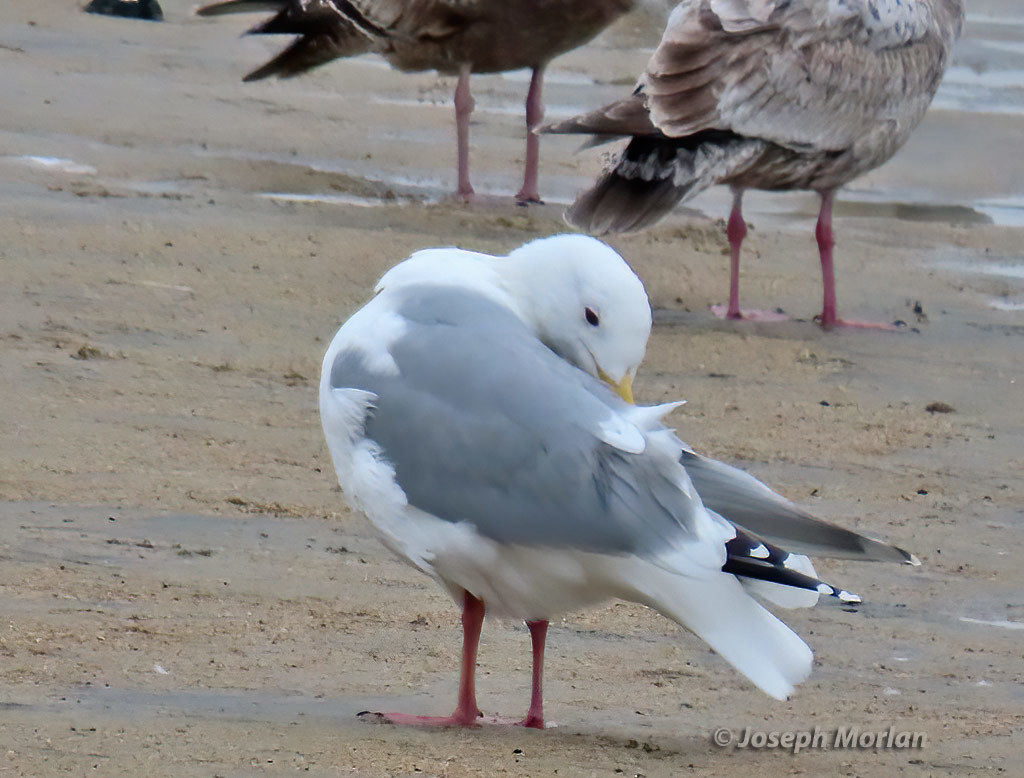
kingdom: Animalia
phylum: Chordata
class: Aves
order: Charadriiformes
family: Laridae
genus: Larus
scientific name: Larus glaucoides
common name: Iceland gull
